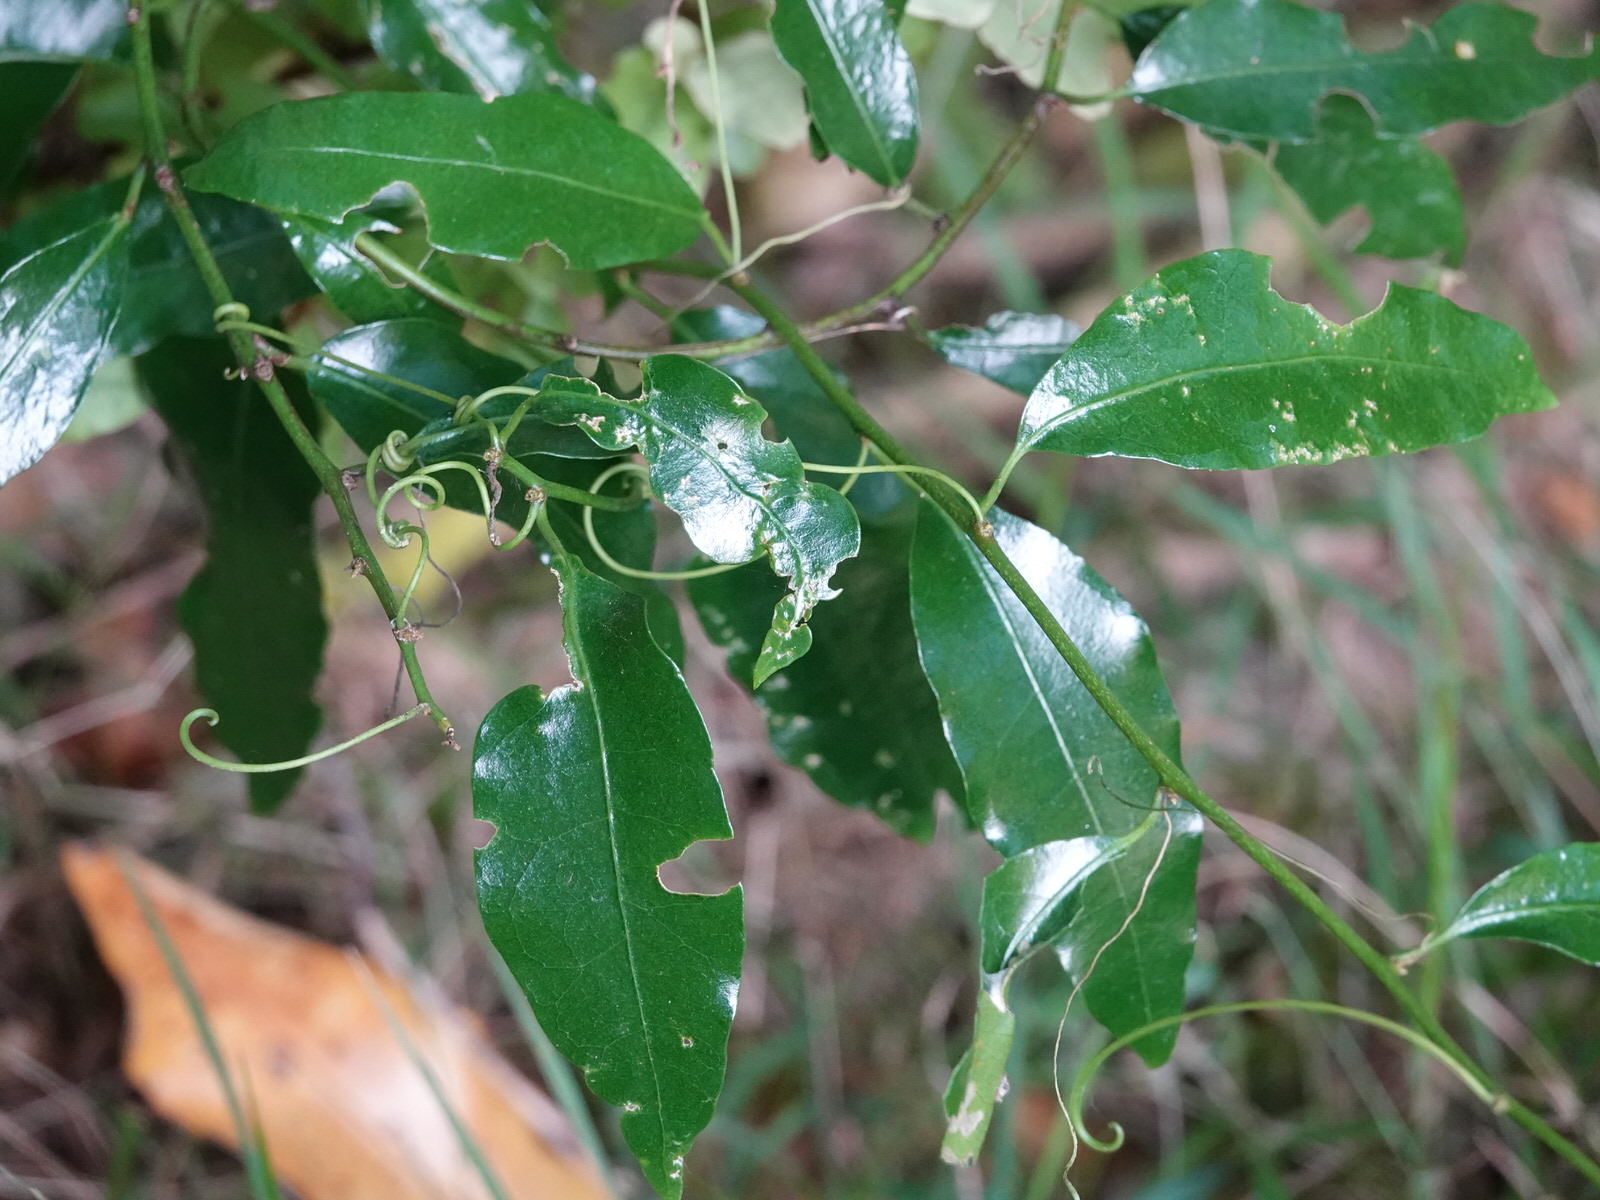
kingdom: Plantae
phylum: Tracheophyta
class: Magnoliopsida
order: Malpighiales
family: Passifloraceae
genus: Passiflora
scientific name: Passiflora tetrandra
